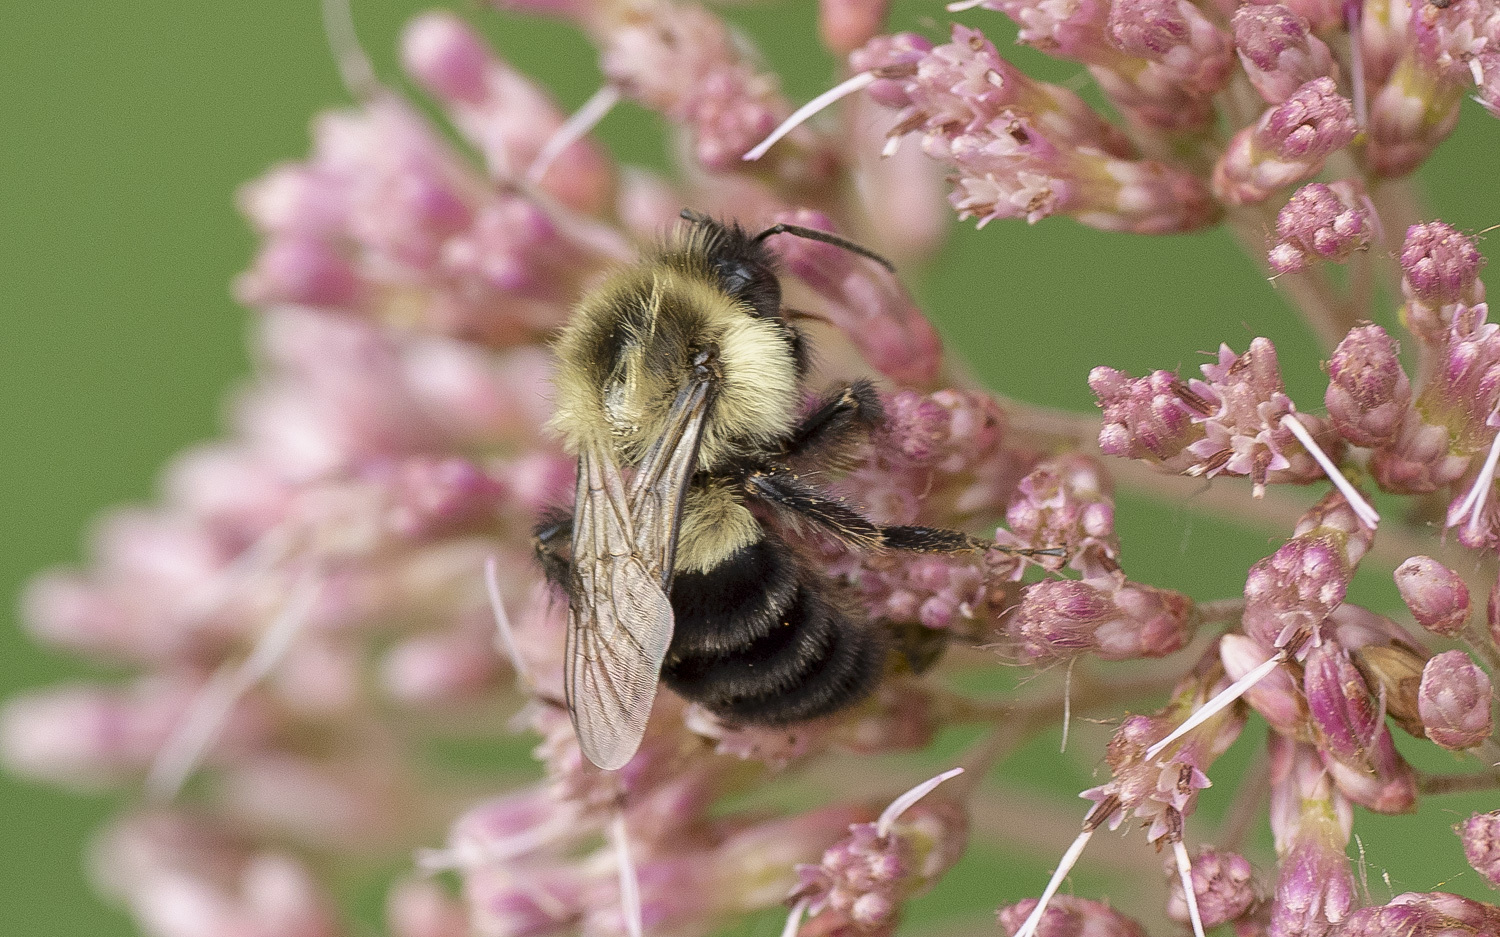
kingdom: Animalia
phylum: Arthropoda
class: Insecta
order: Hymenoptera
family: Apidae
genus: Bombus
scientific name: Bombus impatiens
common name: Common eastern bumble bee
